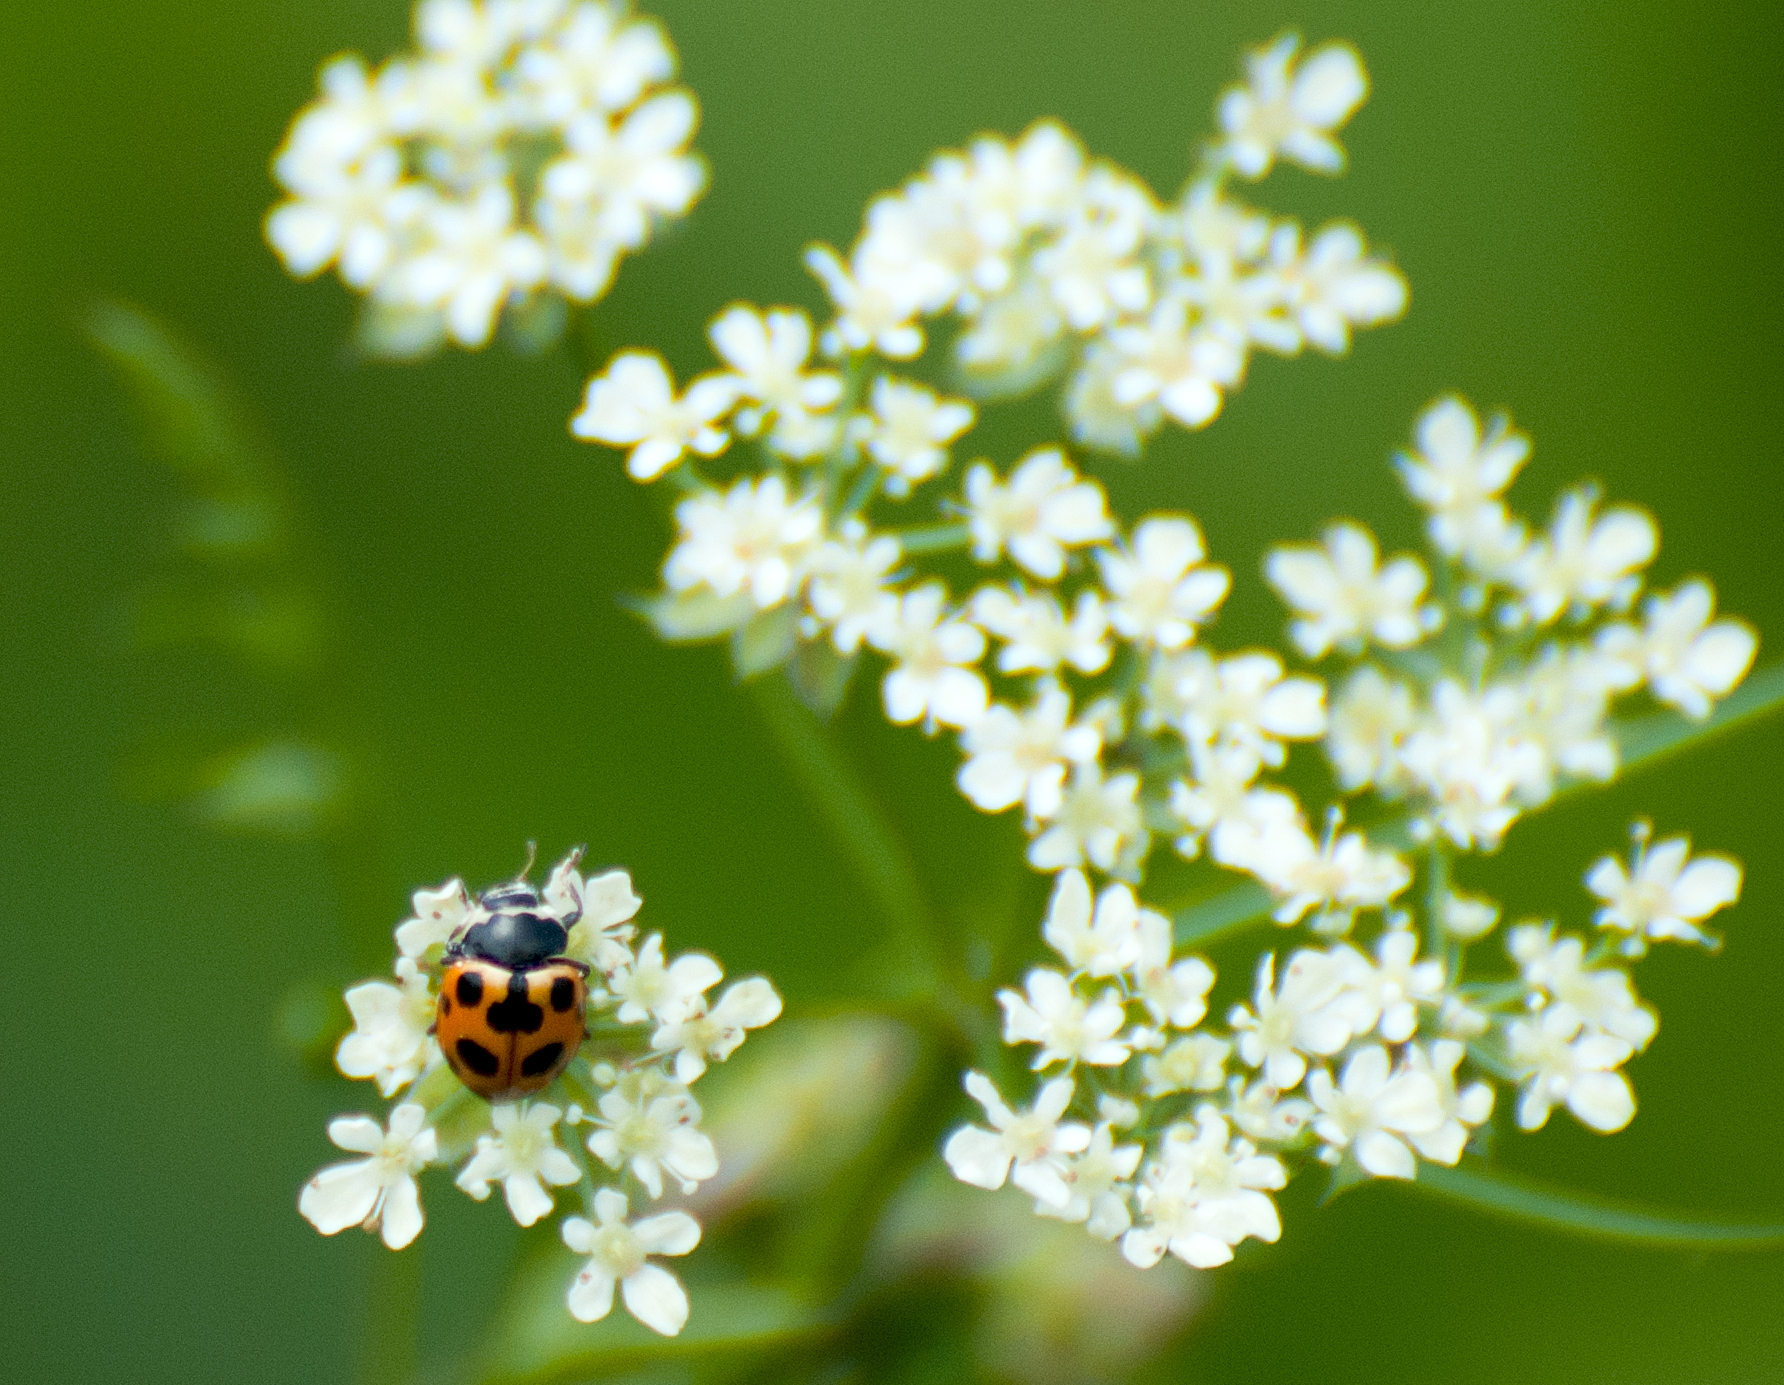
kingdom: Animalia
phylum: Arthropoda
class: Insecta
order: Coleoptera
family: Coccinellidae
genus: Ceratomegilla
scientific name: Ceratomegilla notata
